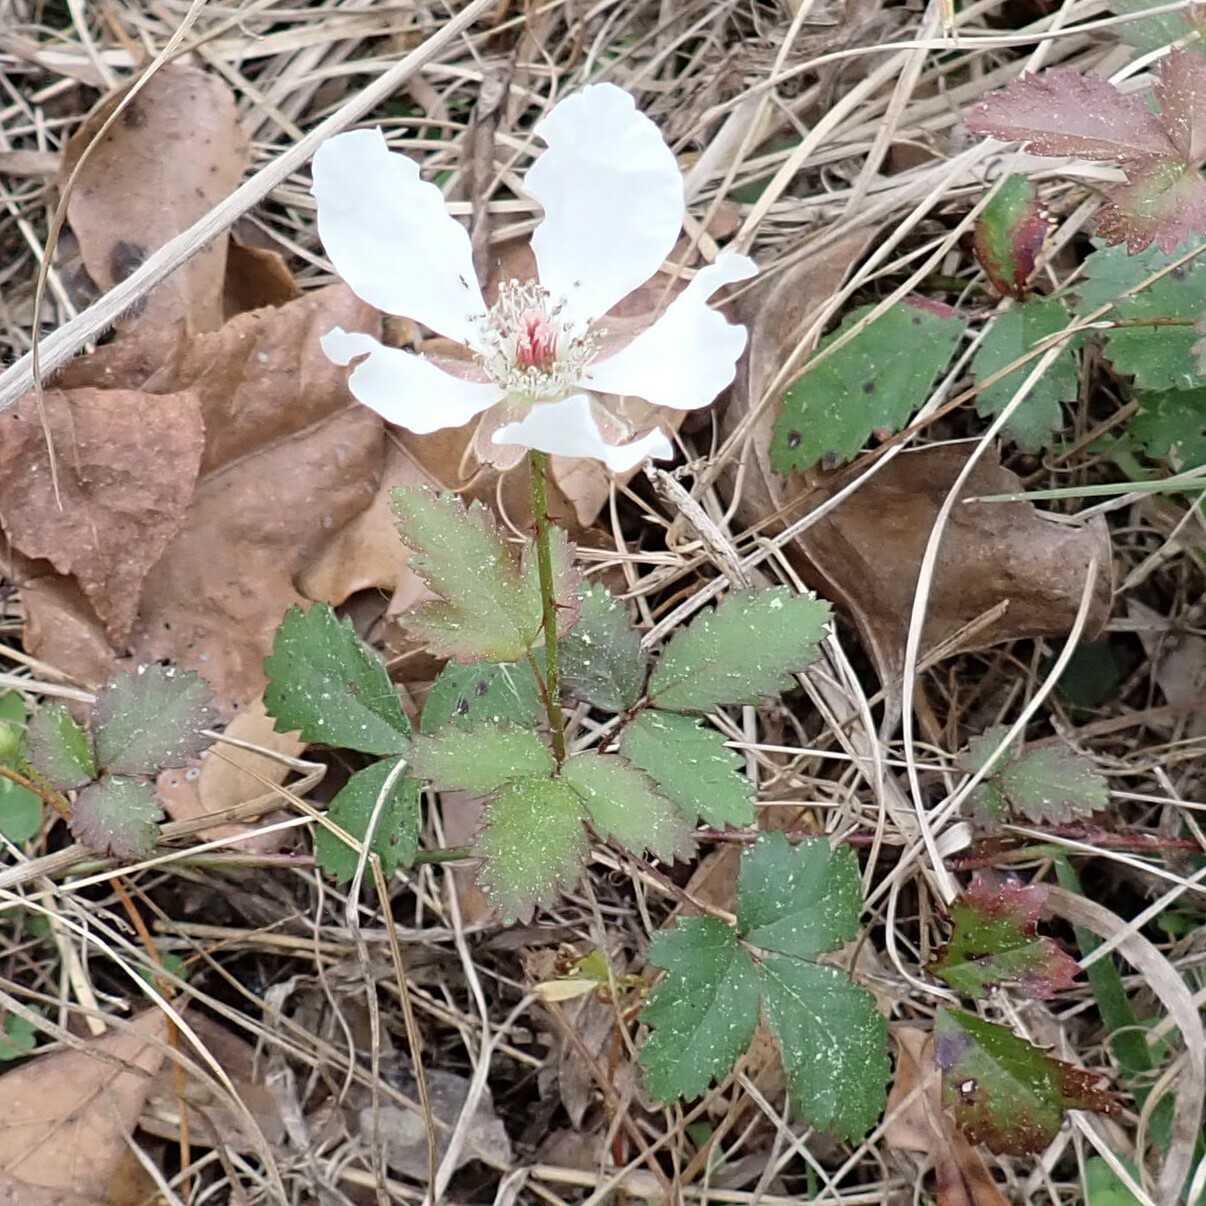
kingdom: Plantae
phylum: Tracheophyta
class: Magnoliopsida
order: Rosales
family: Rosaceae
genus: Rubus
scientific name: Rubus trivialis
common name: Southern dewberry
